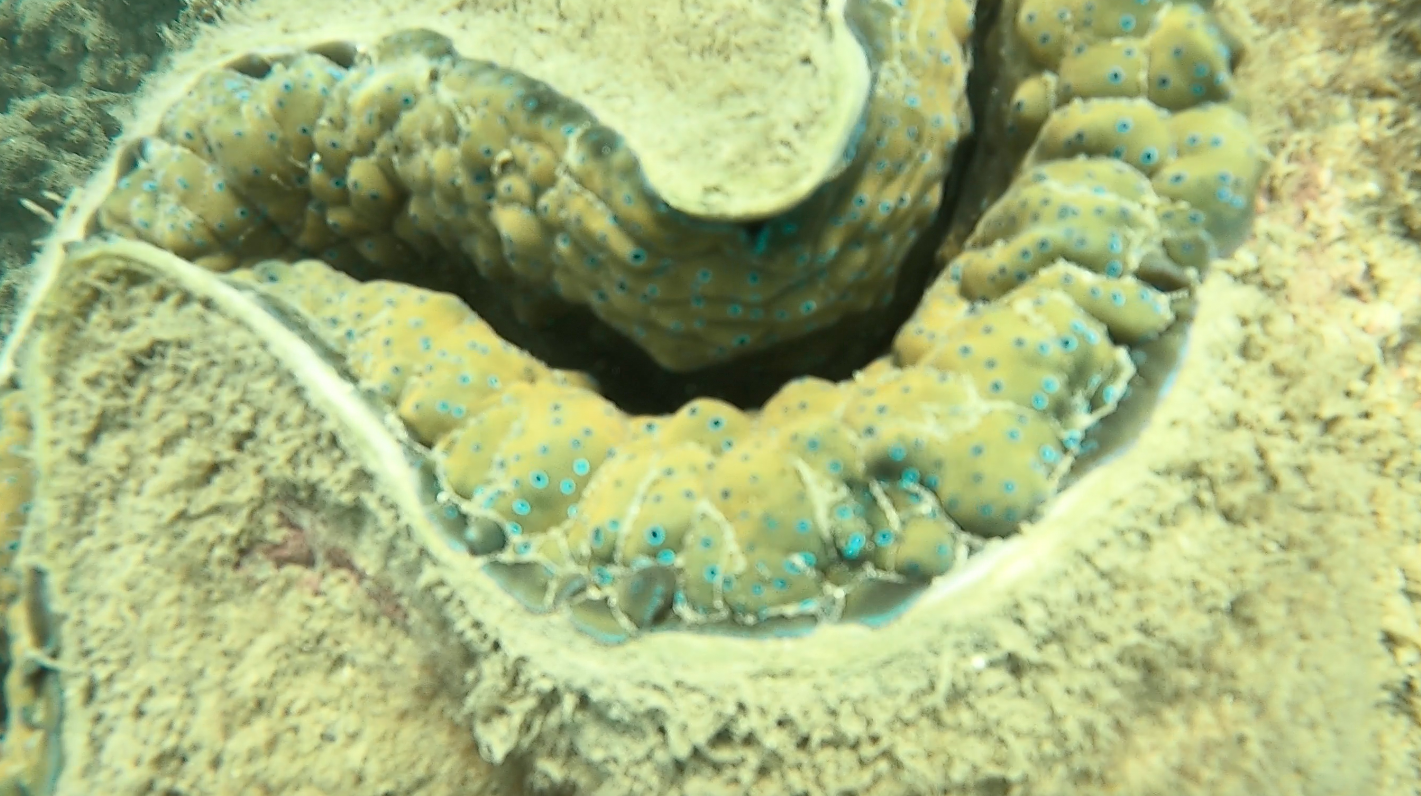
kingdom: Animalia
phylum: Mollusca
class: Bivalvia
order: Cardiida
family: Cardiidae
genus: Tridacna
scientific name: Tridacna gigas
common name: Giant clam
